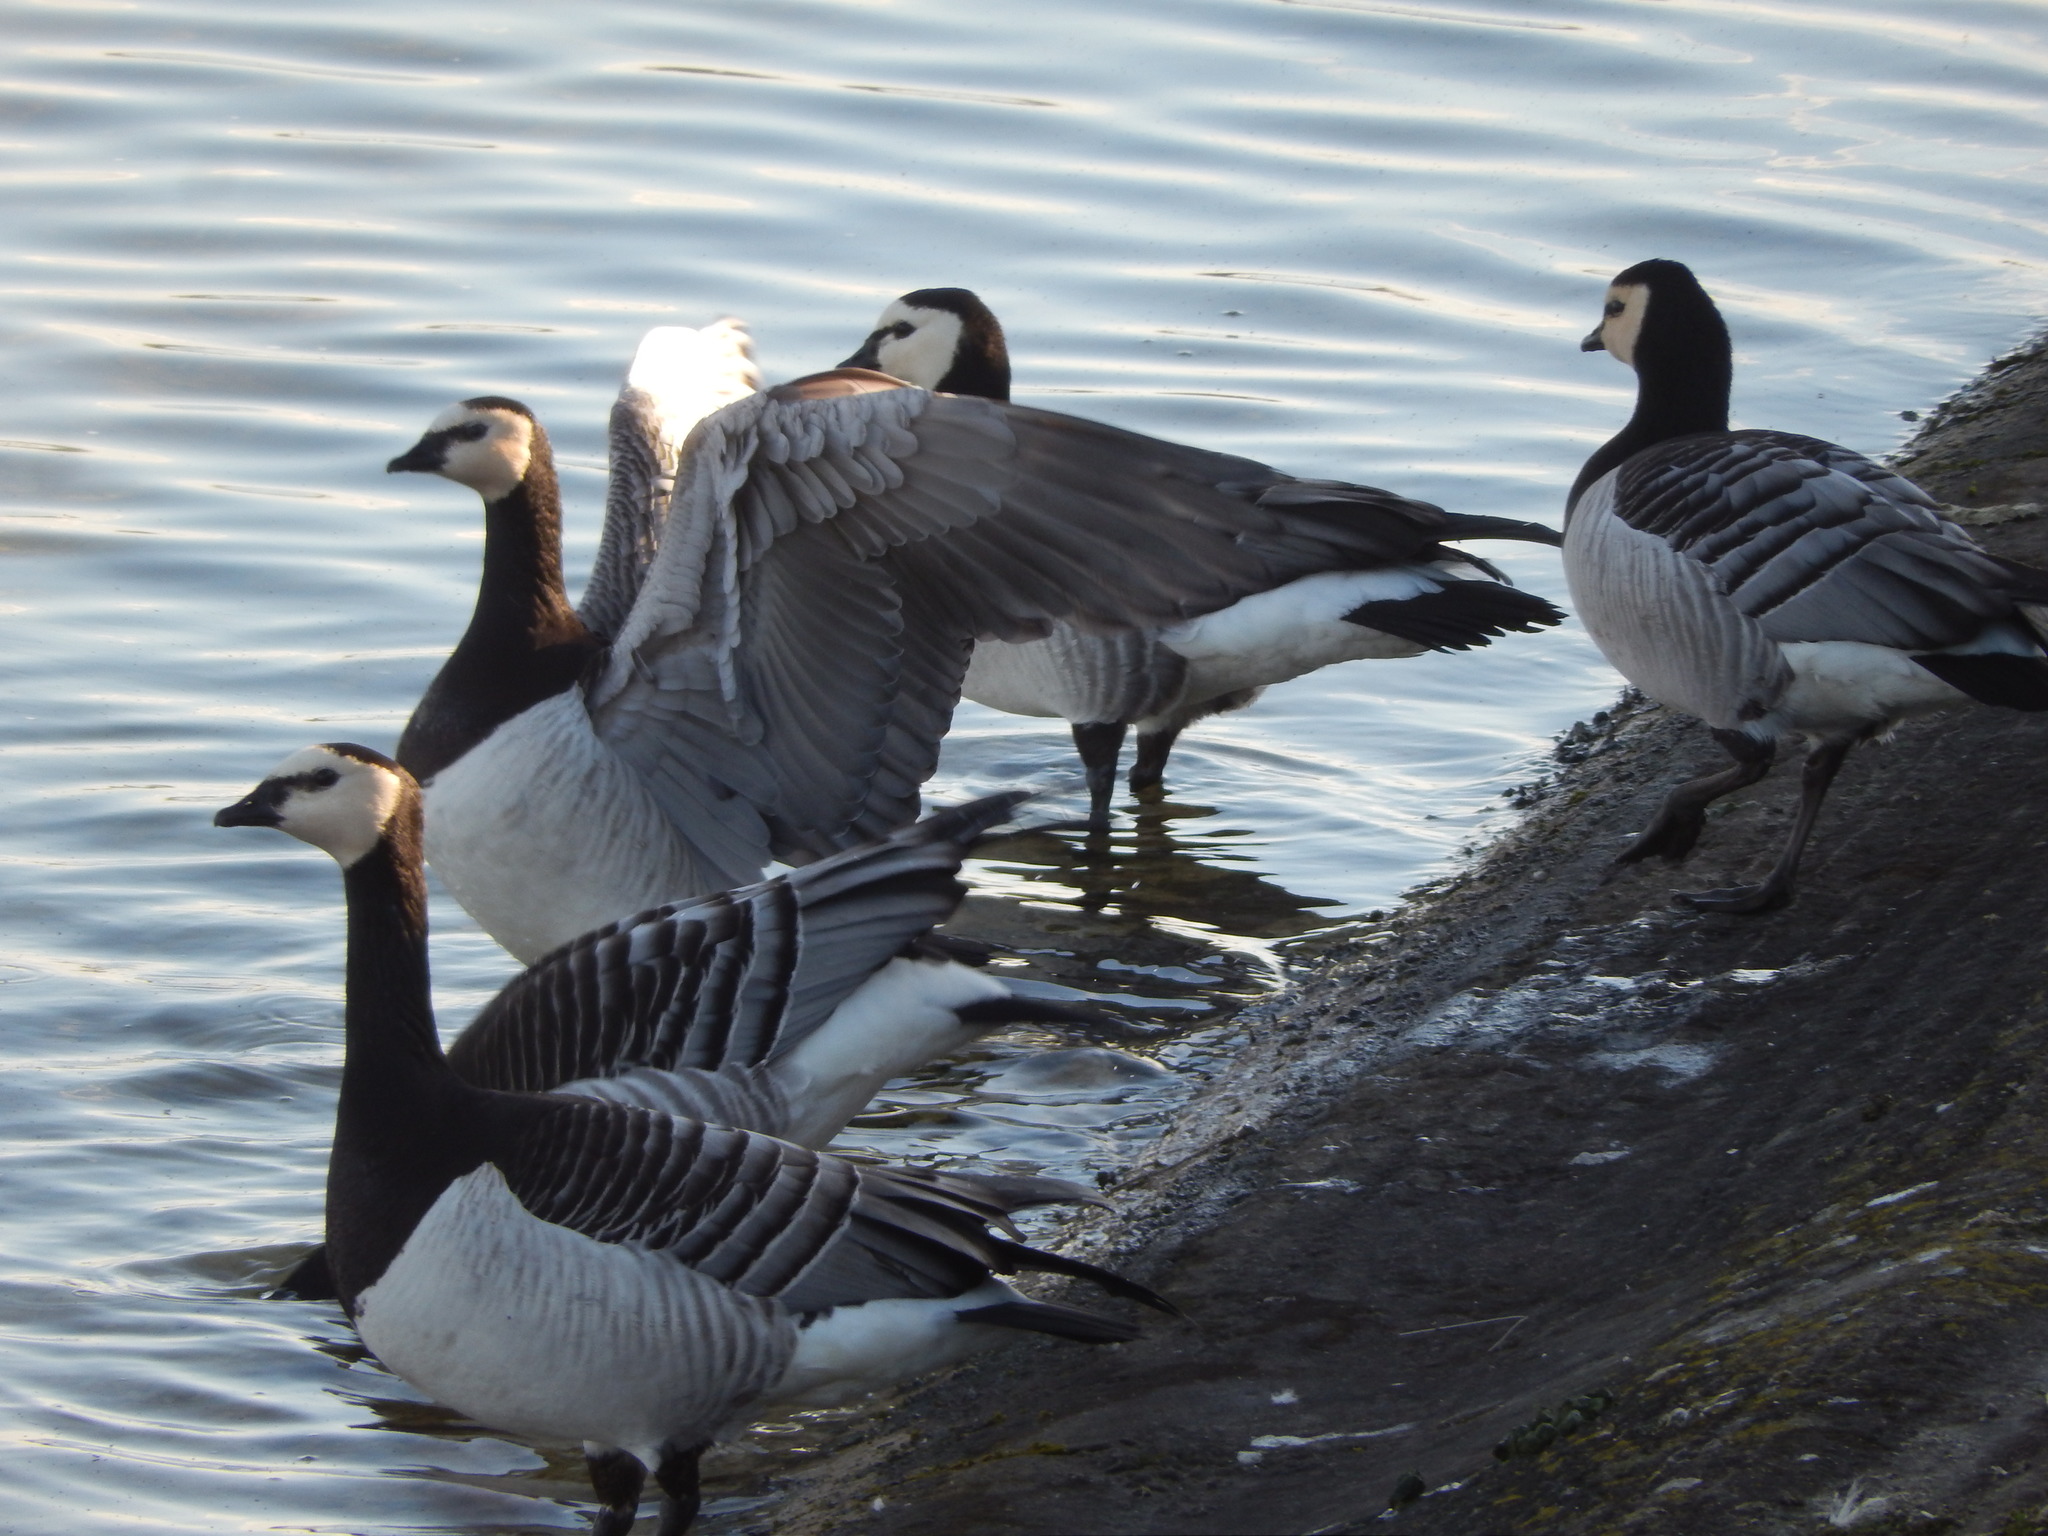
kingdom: Animalia
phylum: Chordata
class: Aves
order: Anseriformes
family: Anatidae
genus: Branta
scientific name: Branta leucopsis
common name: Barnacle goose
